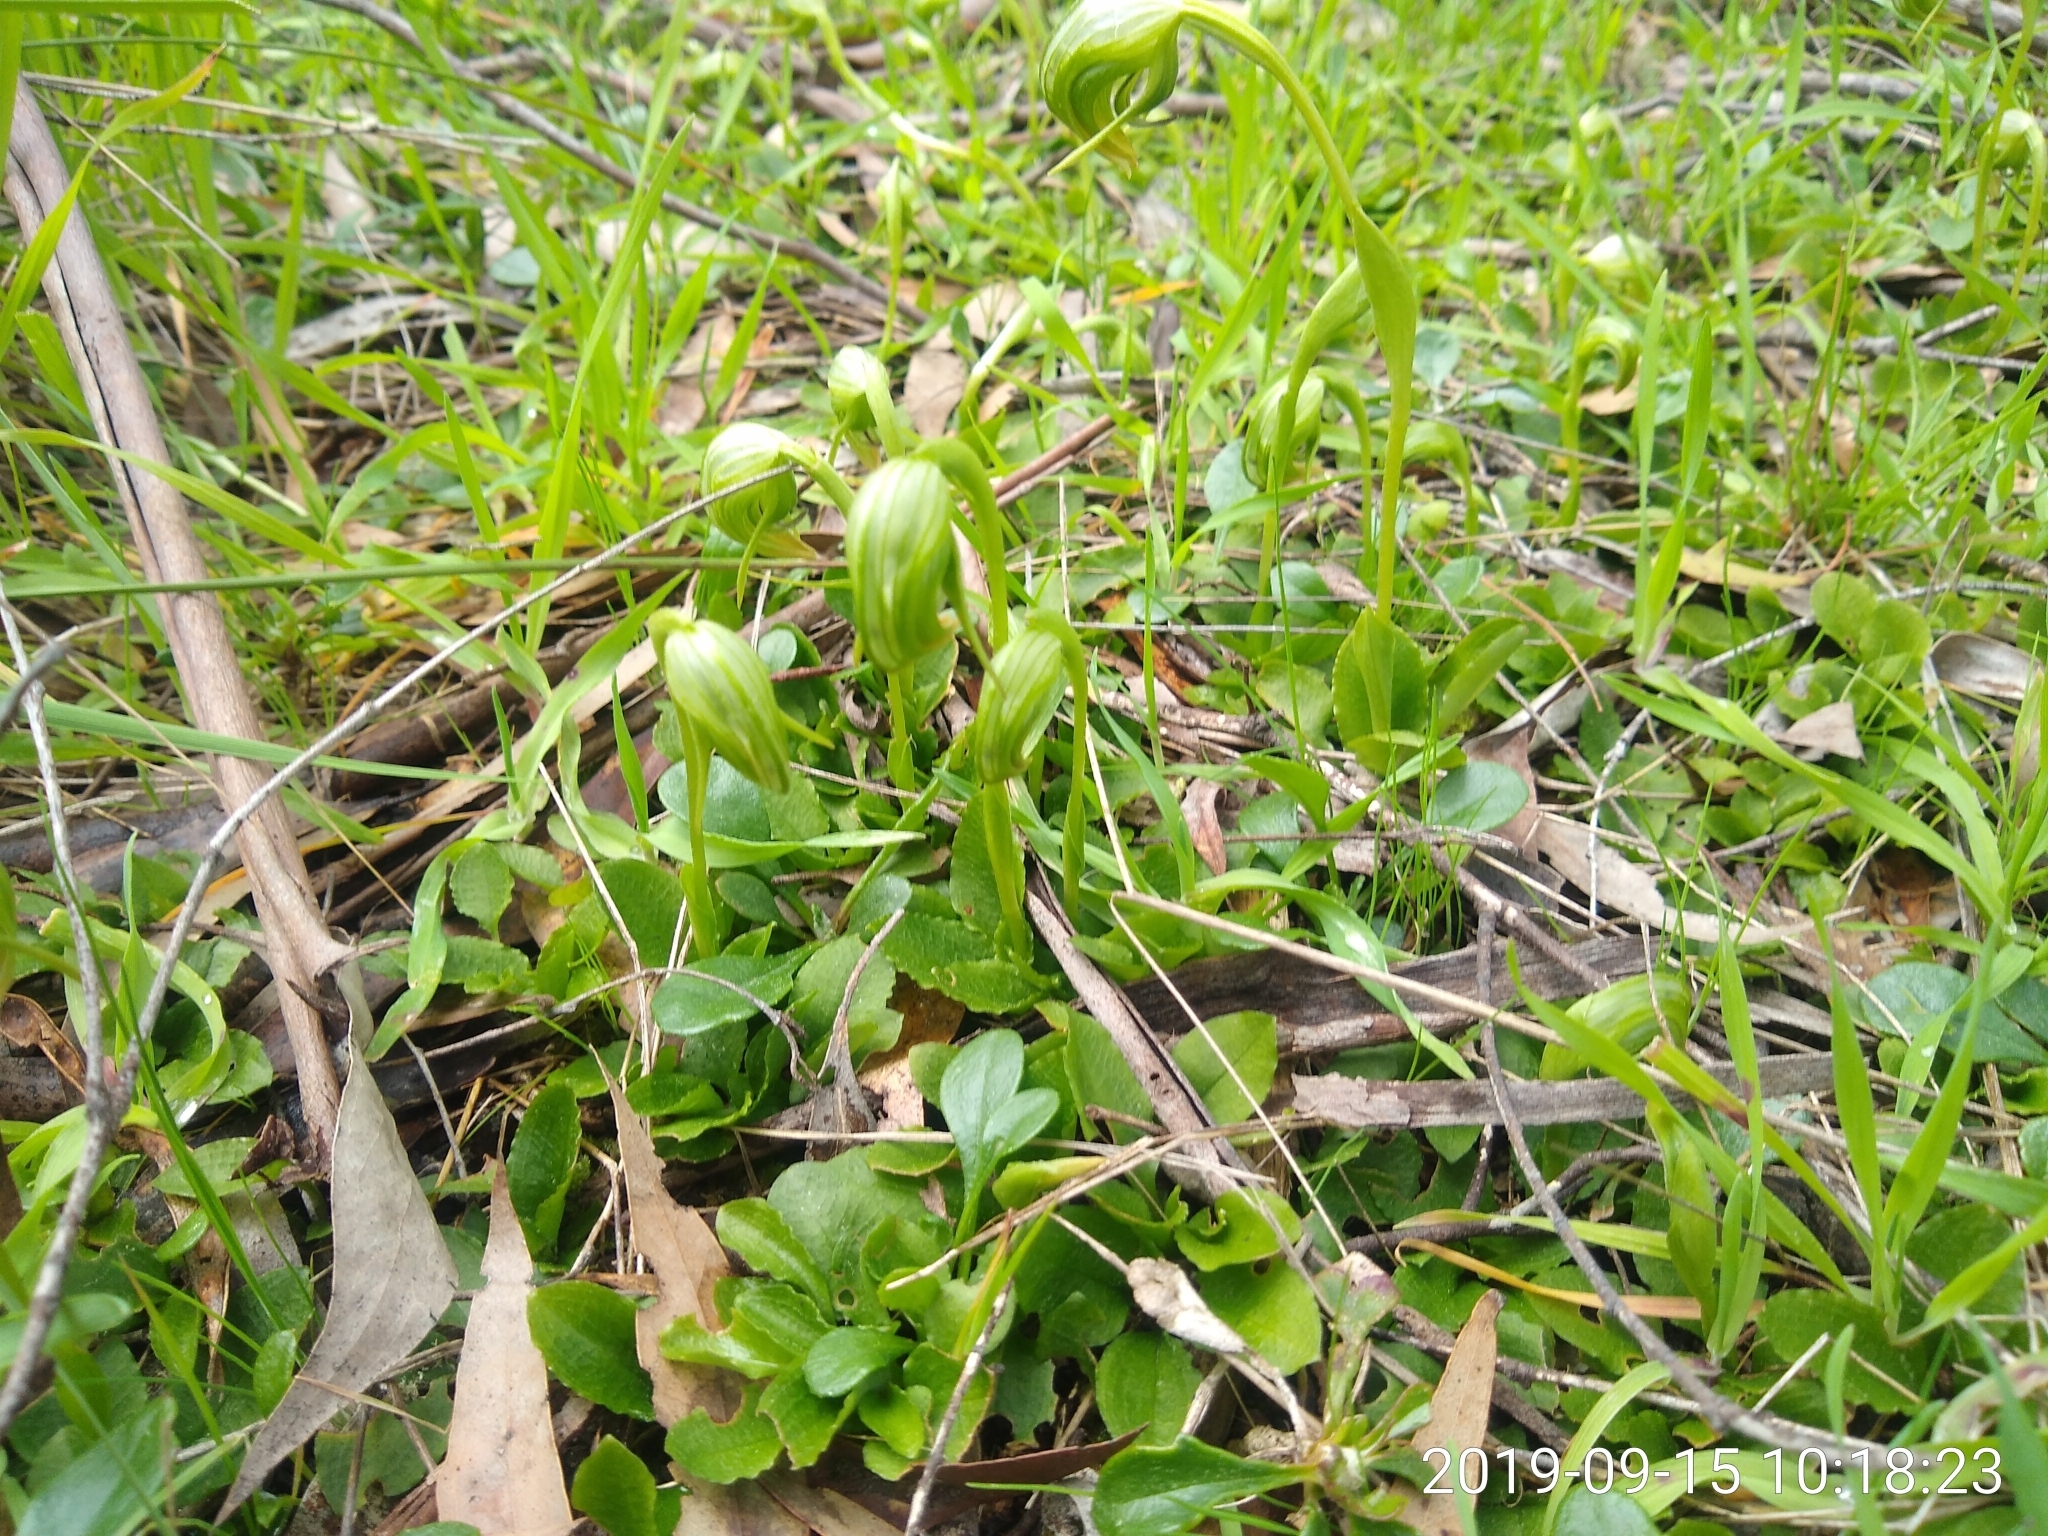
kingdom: Plantae
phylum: Tracheophyta
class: Liliopsida
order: Asparagales
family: Orchidaceae
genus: Pterostylis
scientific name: Pterostylis nutans
